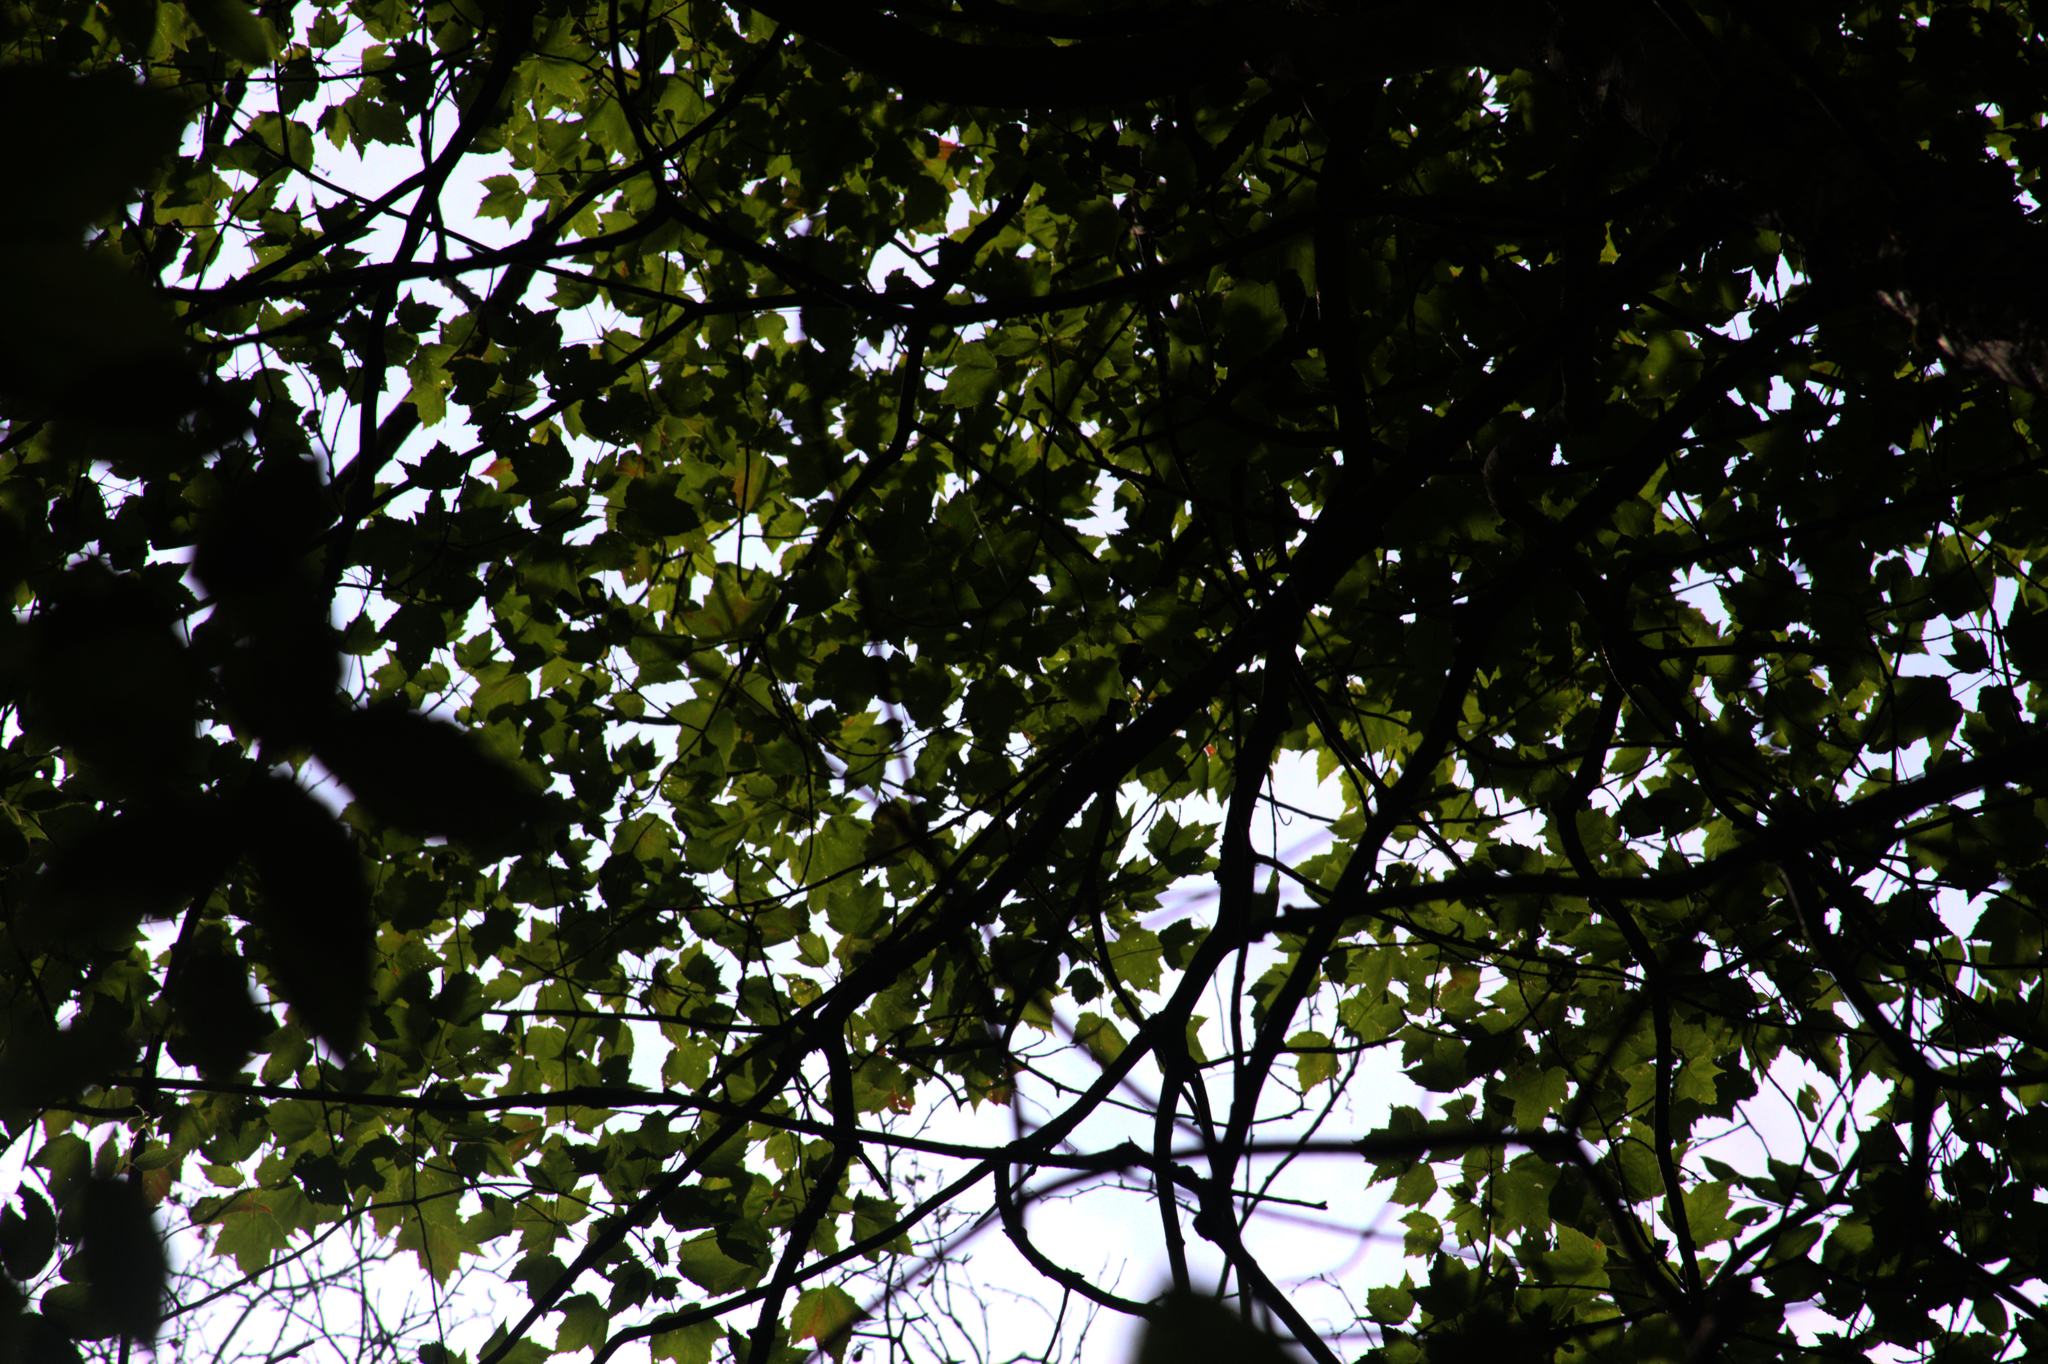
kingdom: Plantae
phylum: Tracheophyta
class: Magnoliopsida
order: Sapindales
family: Sapindaceae
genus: Acer
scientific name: Acer rubrum
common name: Red maple
